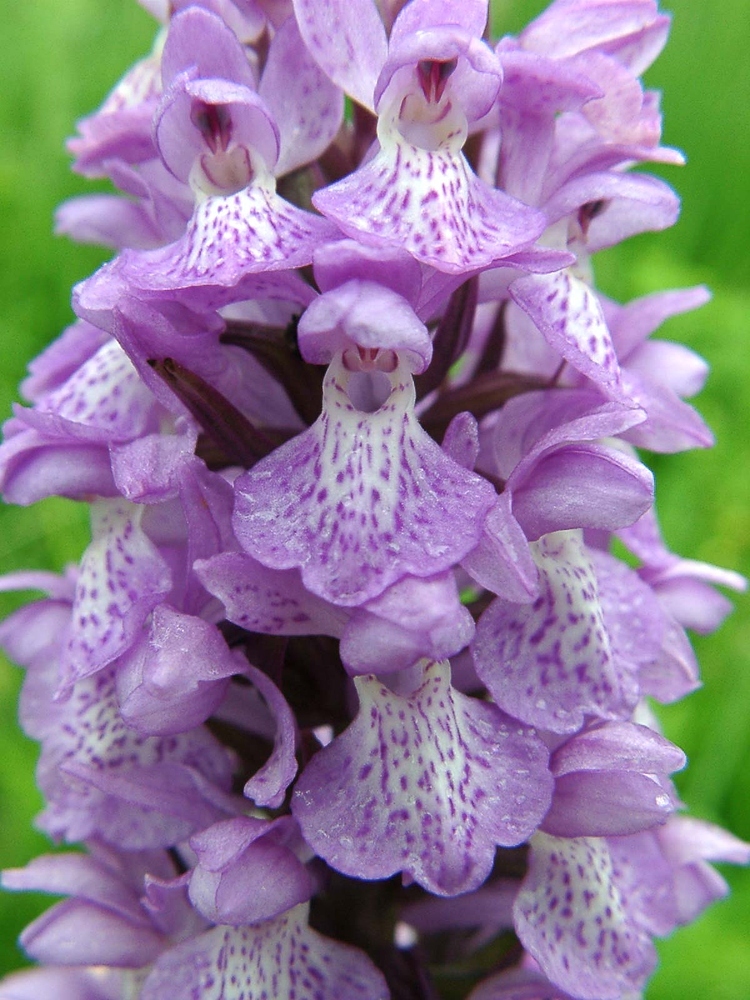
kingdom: Plantae
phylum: Tracheophyta
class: Liliopsida
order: Asparagales
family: Orchidaceae
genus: Dactylorhiza
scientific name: Dactylorhiza majalis
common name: Marsh orchid
